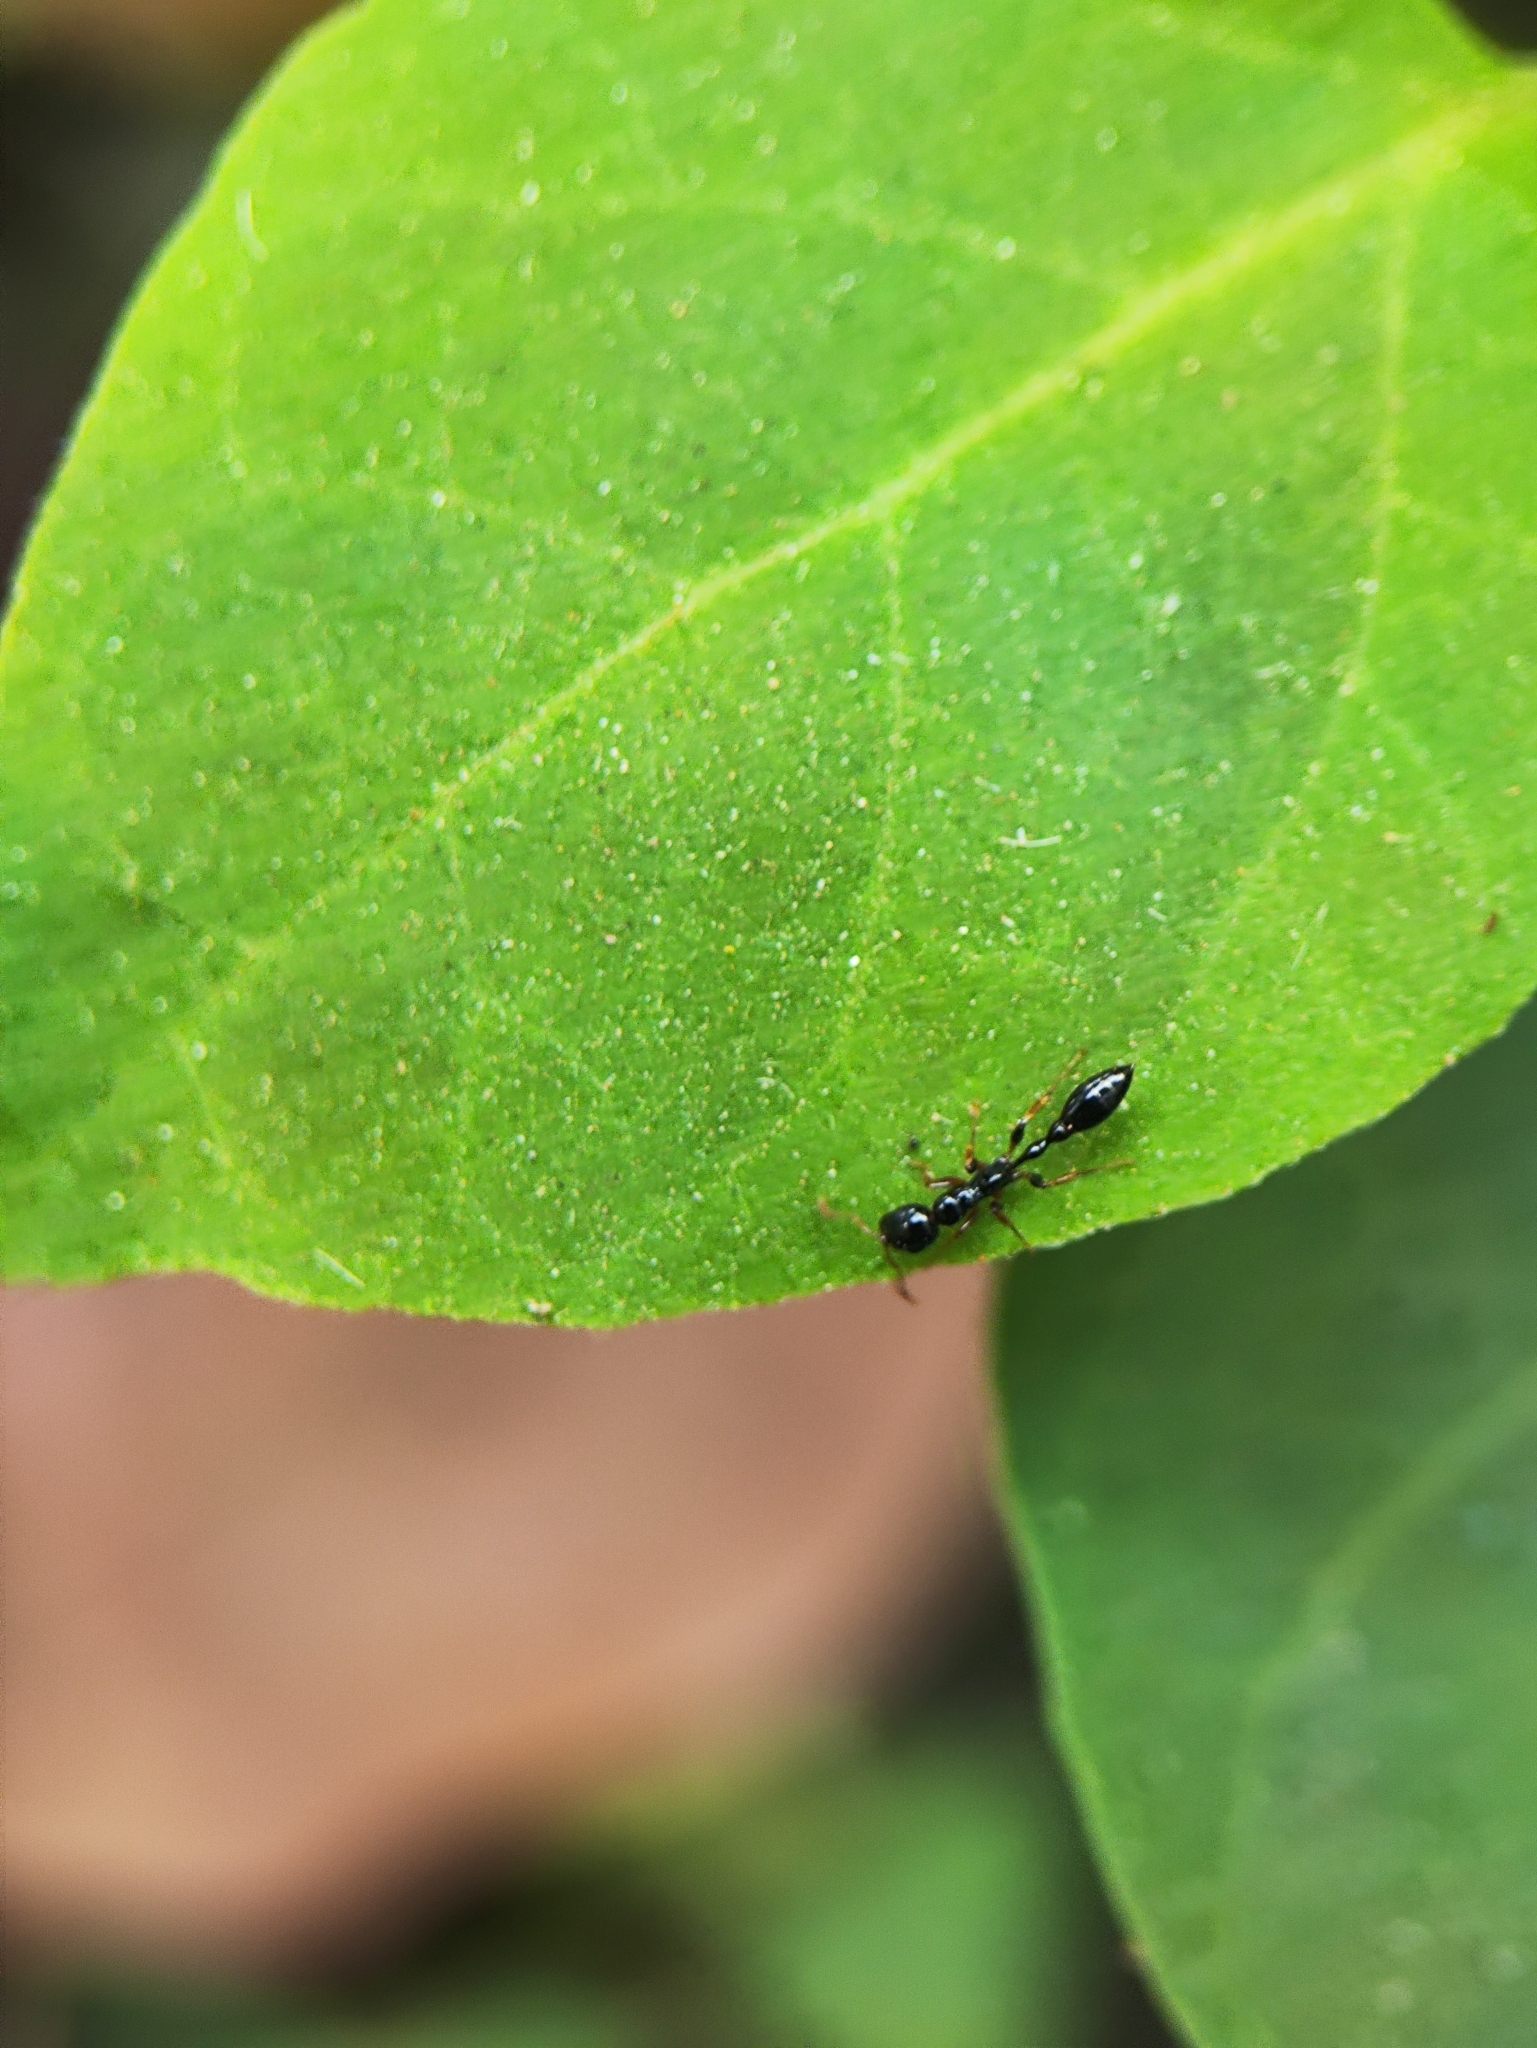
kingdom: Animalia
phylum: Arthropoda
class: Insecta
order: Hymenoptera
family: Formicidae
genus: Tetraponera
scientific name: Tetraponera allaborans
